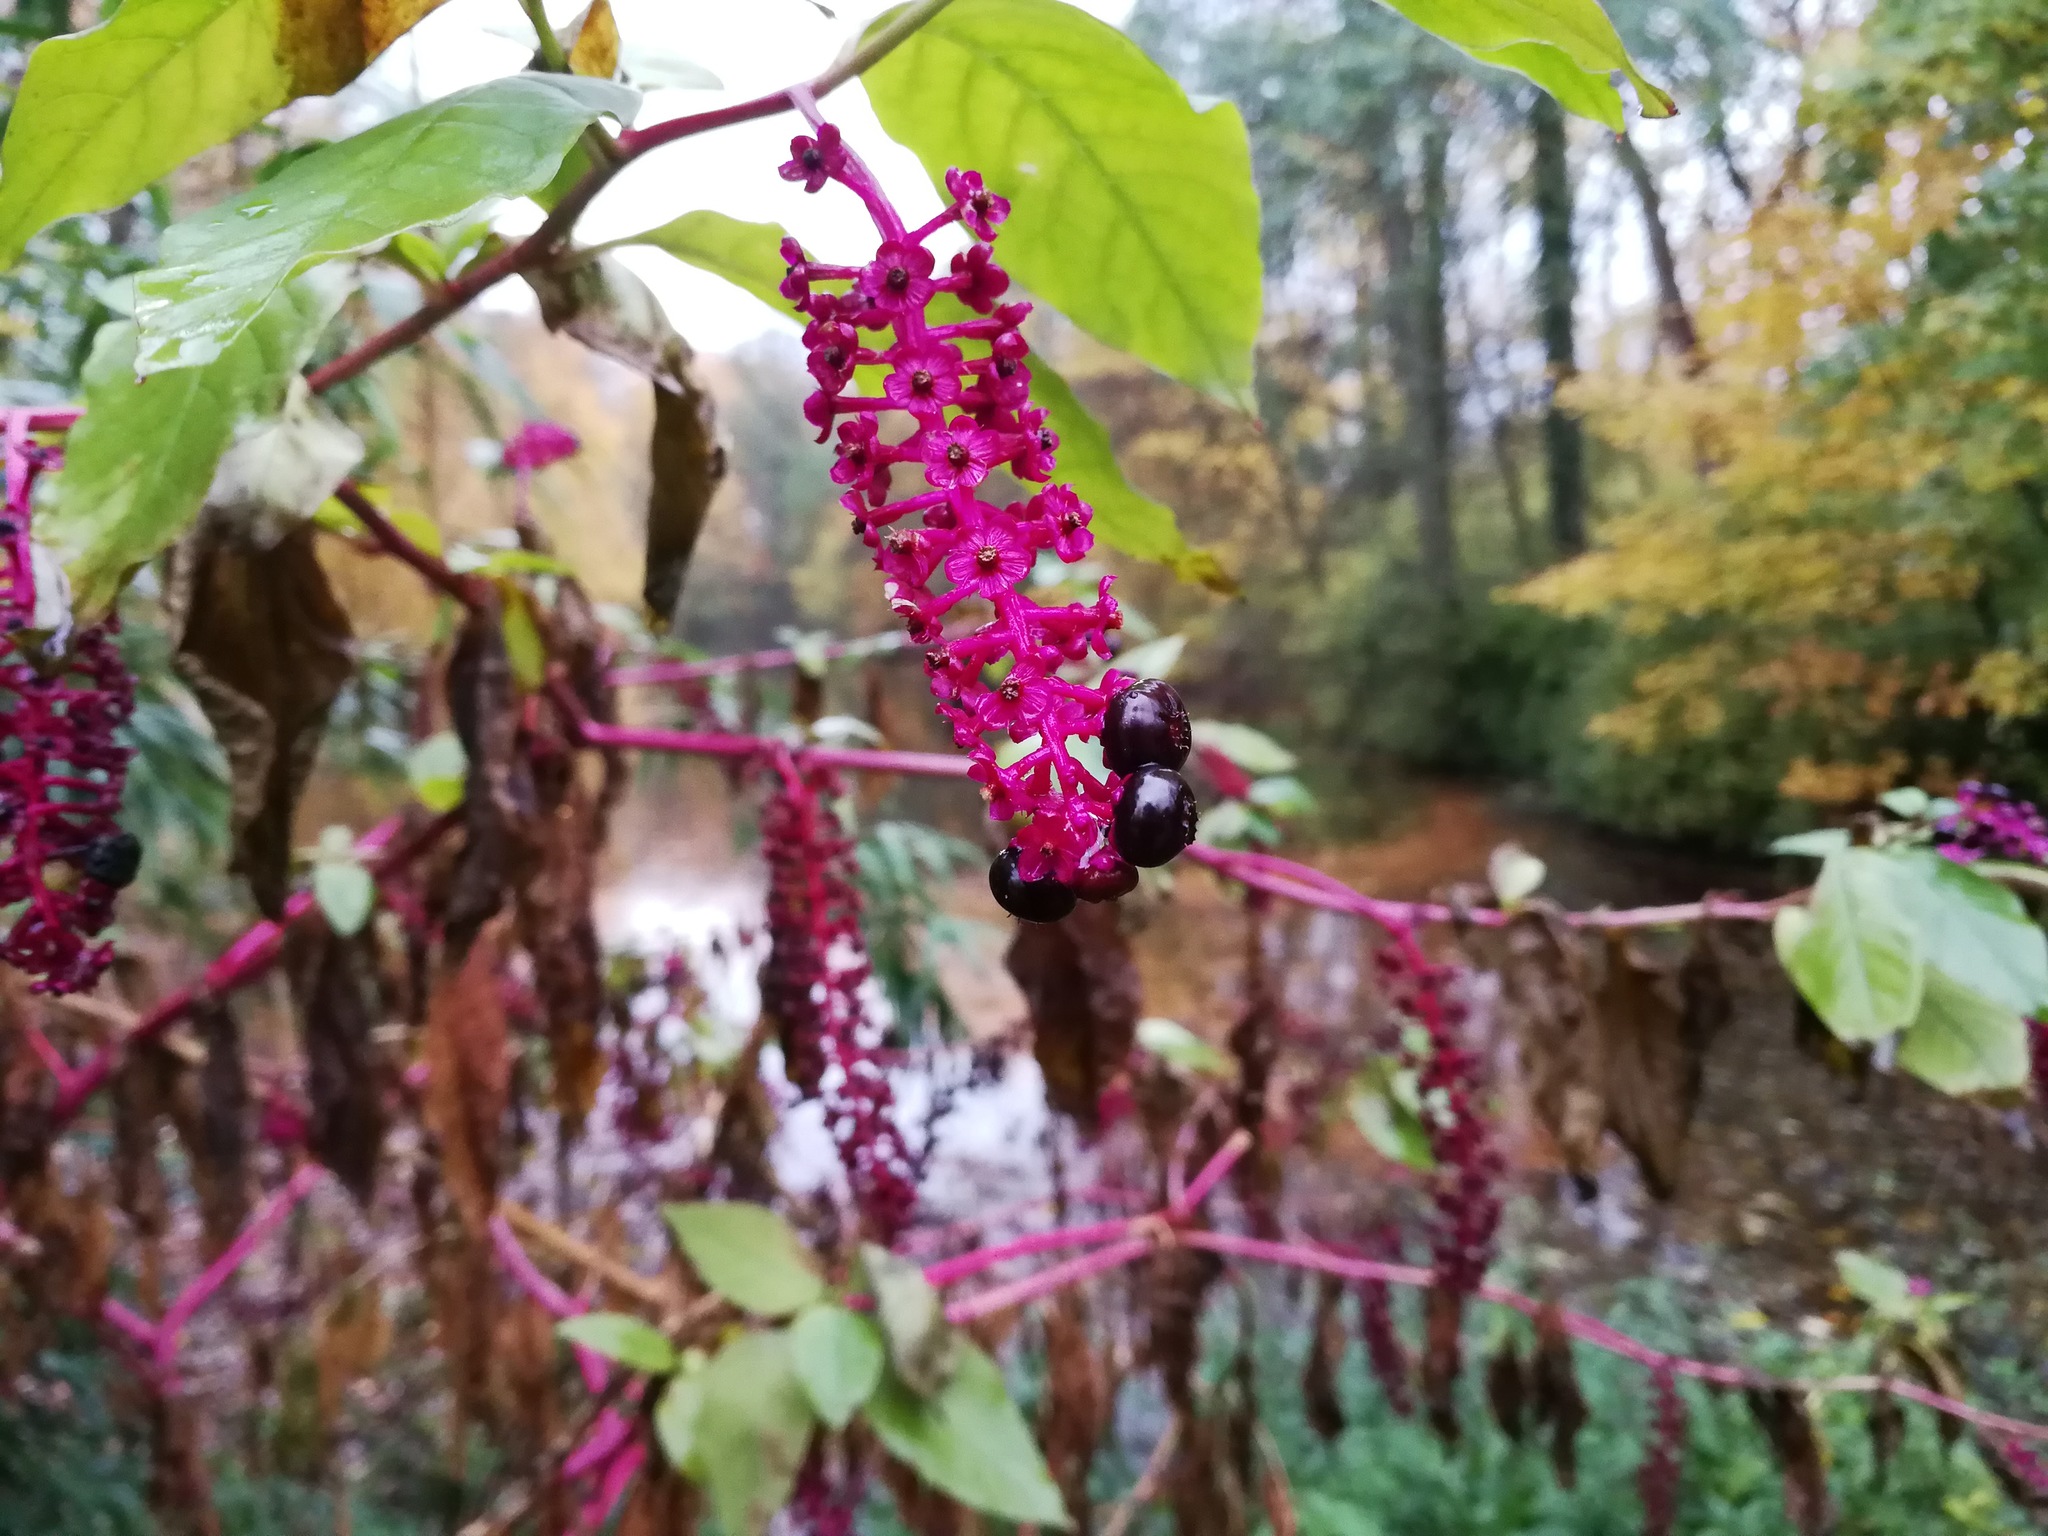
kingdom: Plantae
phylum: Tracheophyta
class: Magnoliopsida
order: Caryophyllales
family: Phytolaccaceae
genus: Phytolacca
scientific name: Phytolacca americana
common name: American pokeweed
